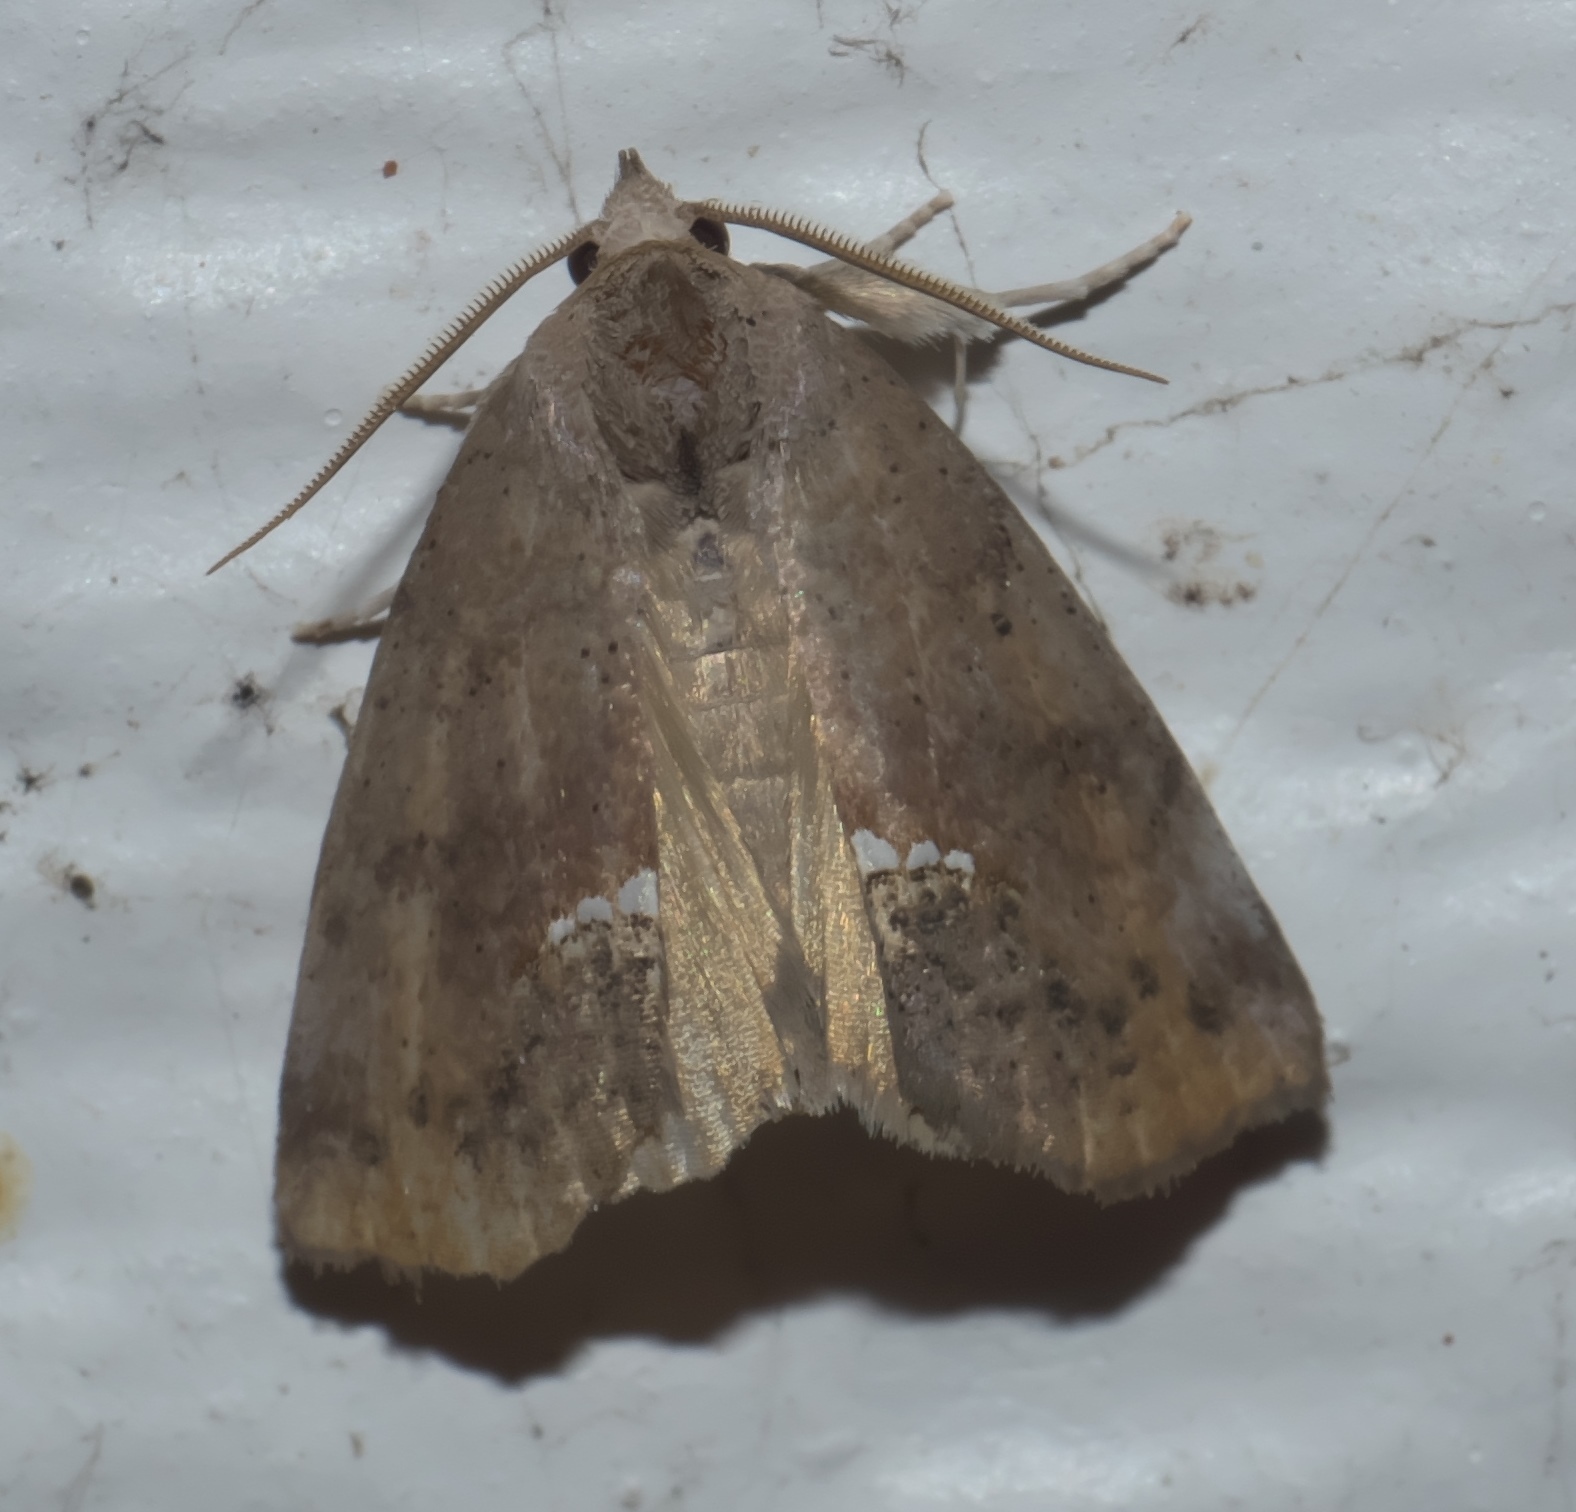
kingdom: Animalia
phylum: Arthropoda
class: Insecta
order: Lepidoptera
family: Erebidae
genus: Hypsoropha
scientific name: Hypsoropha hormos
